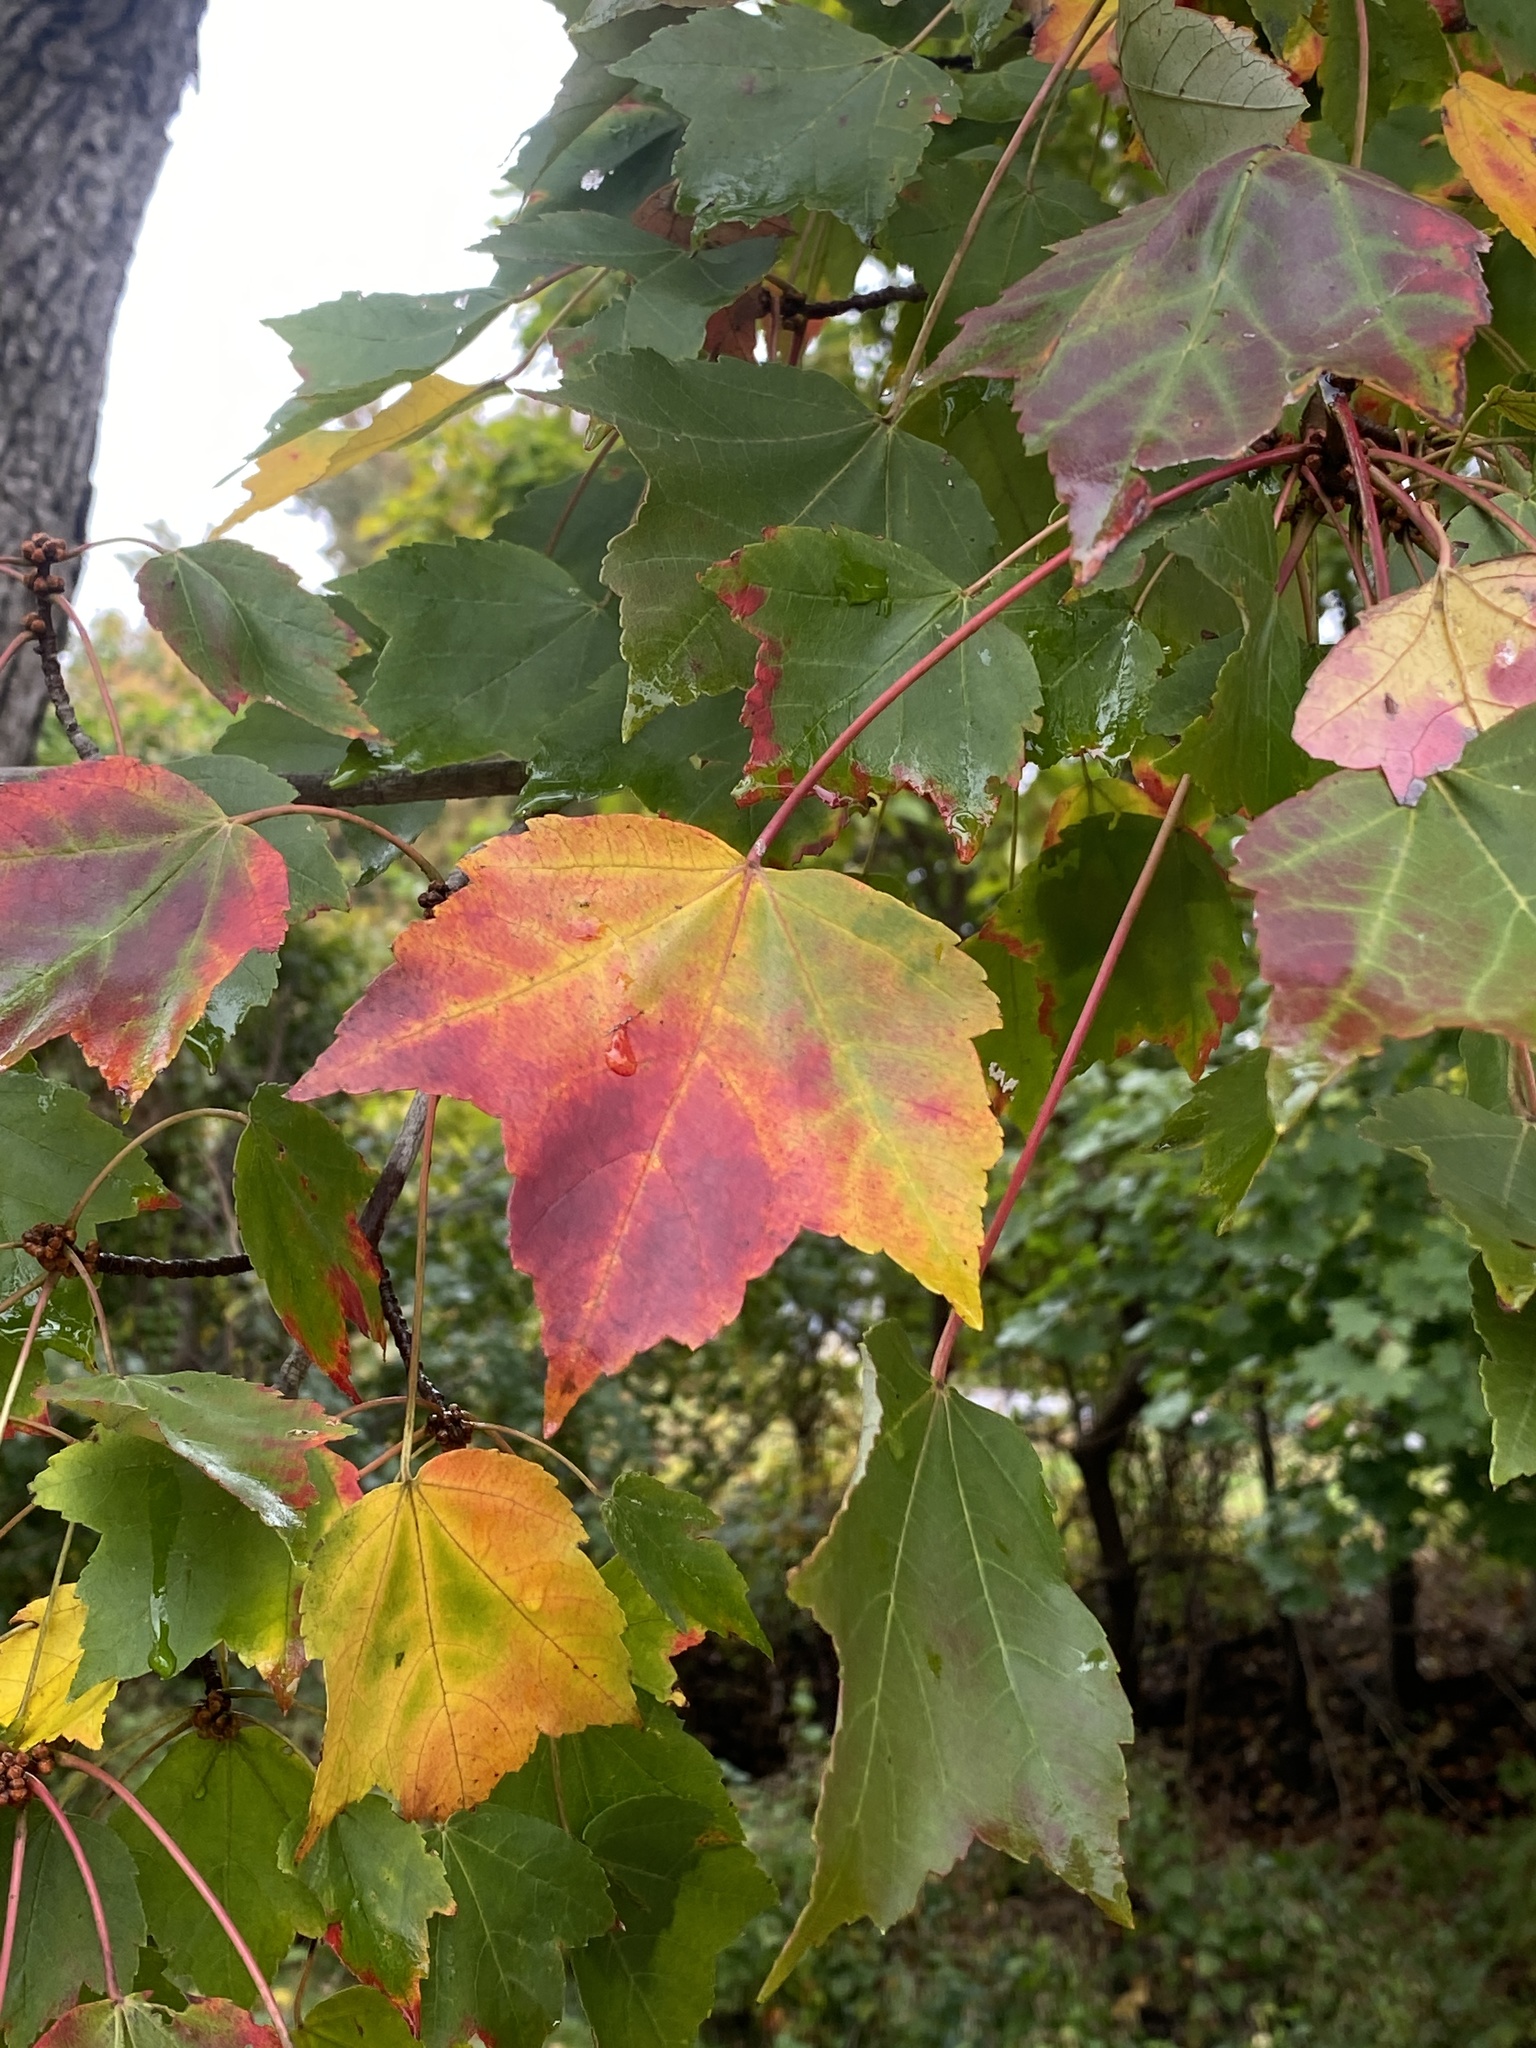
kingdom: Plantae
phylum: Tracheophyta
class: Magnoliopsida
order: Sapindales
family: Sapindaceae
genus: Acer
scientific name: Acer rubrum
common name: Red maple
